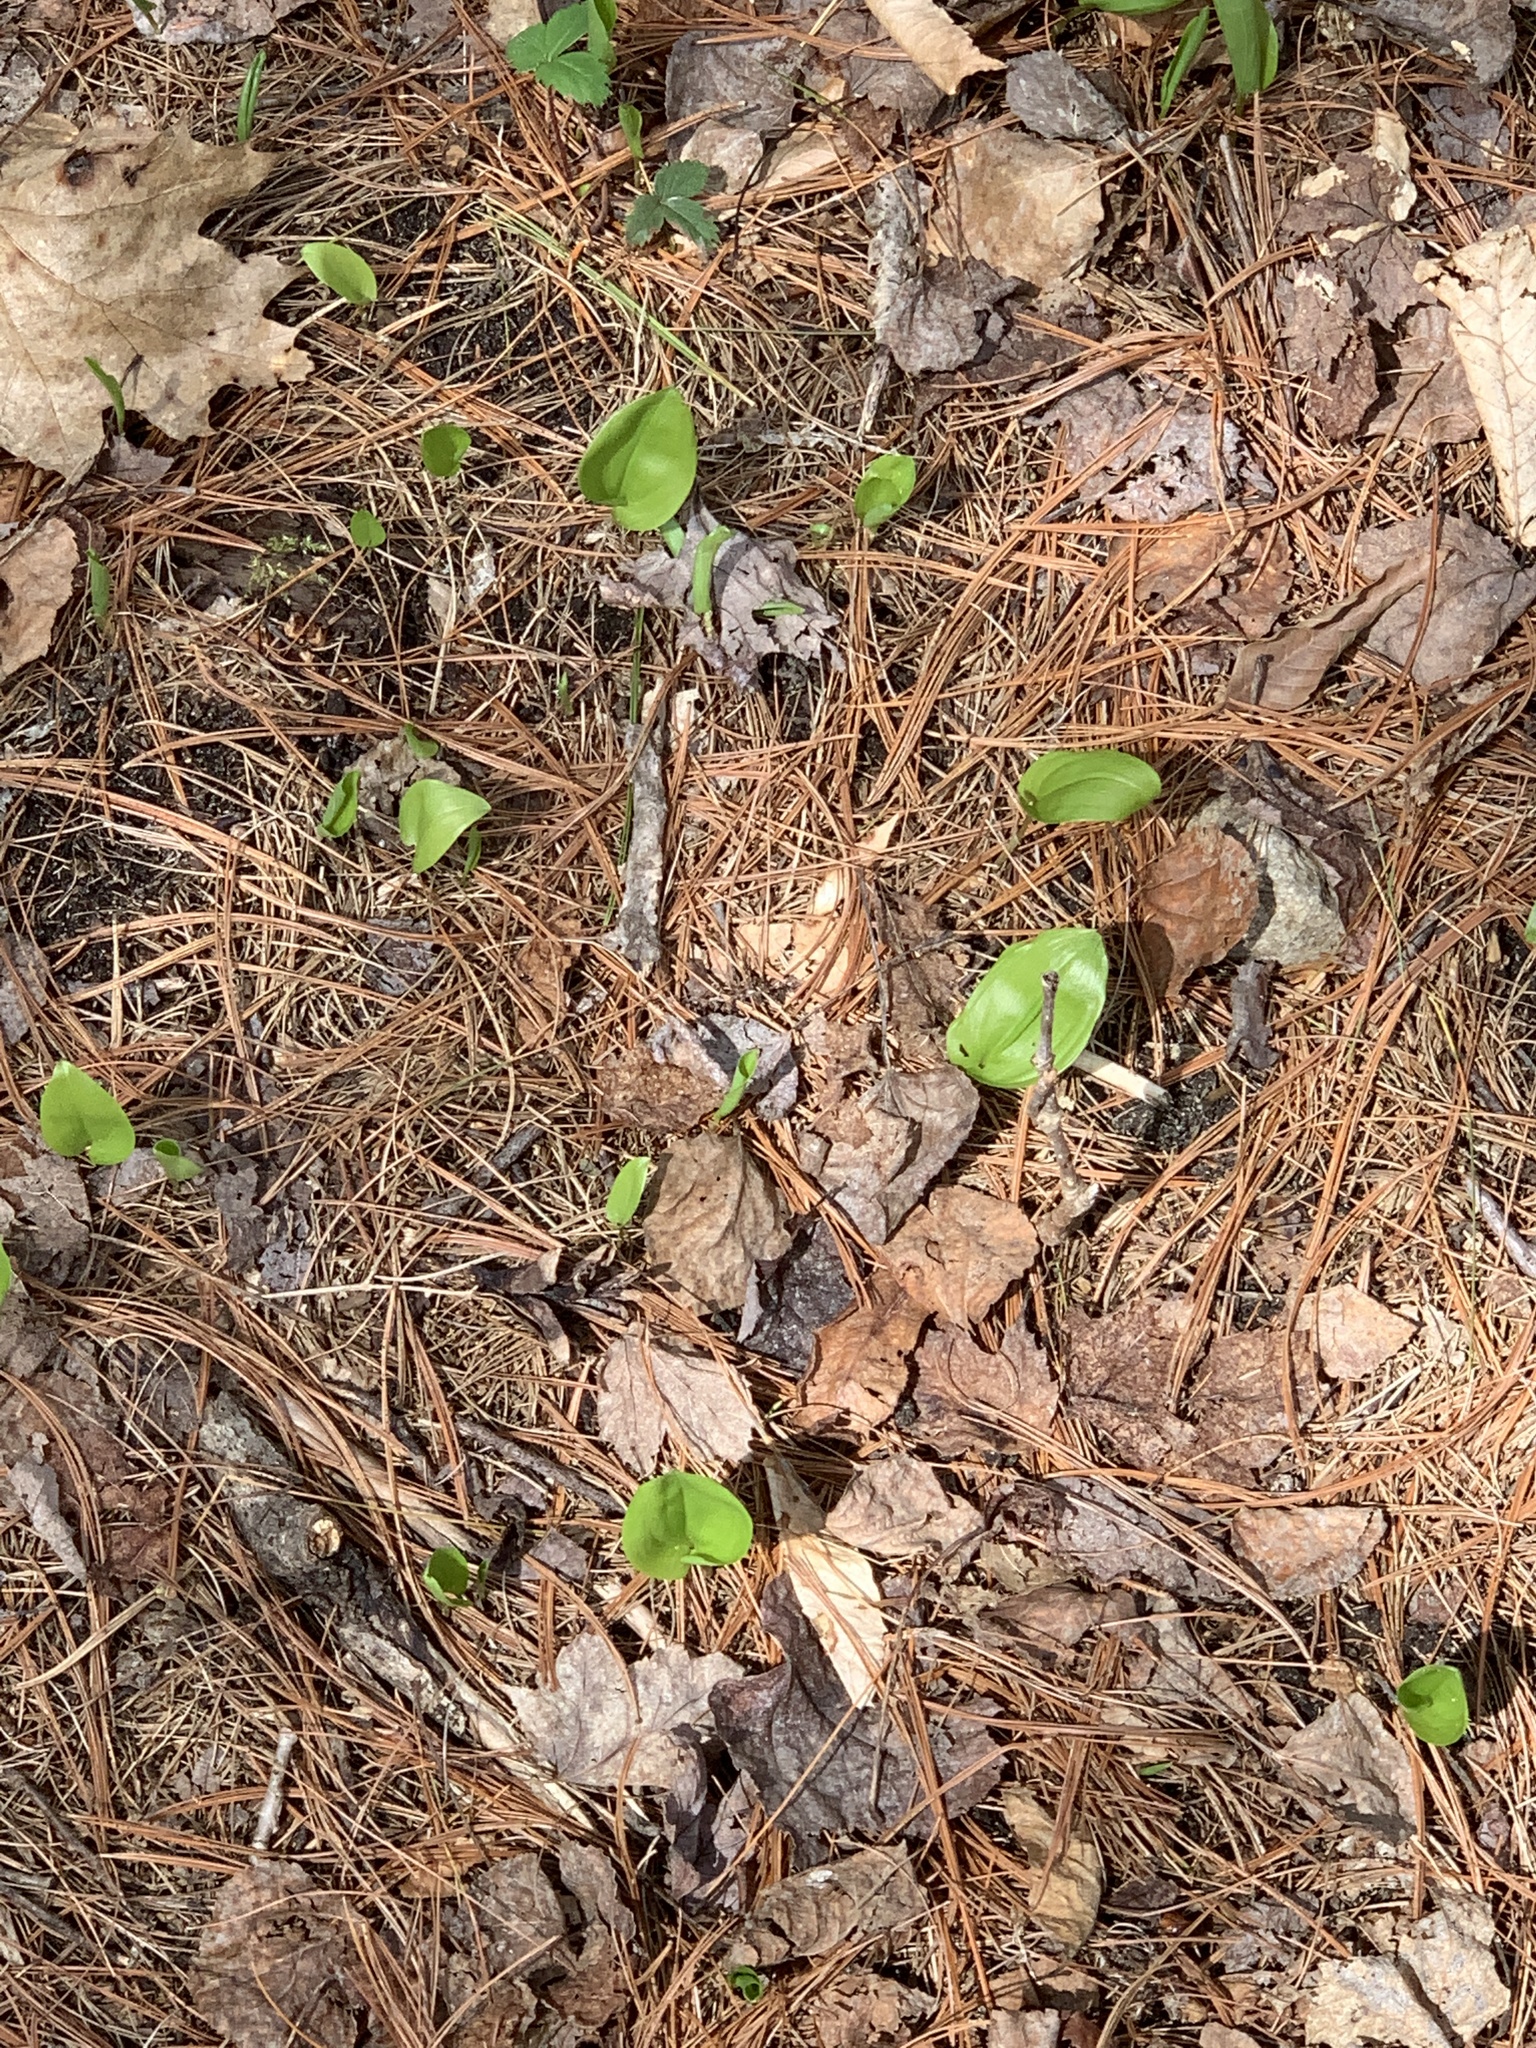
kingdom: Plantae
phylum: Tracheophyta
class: Liliopsida
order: Asparagales
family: Asparagaceae
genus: Maianthemum
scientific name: Maianthemum canadense
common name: False lily-of-the-valley
